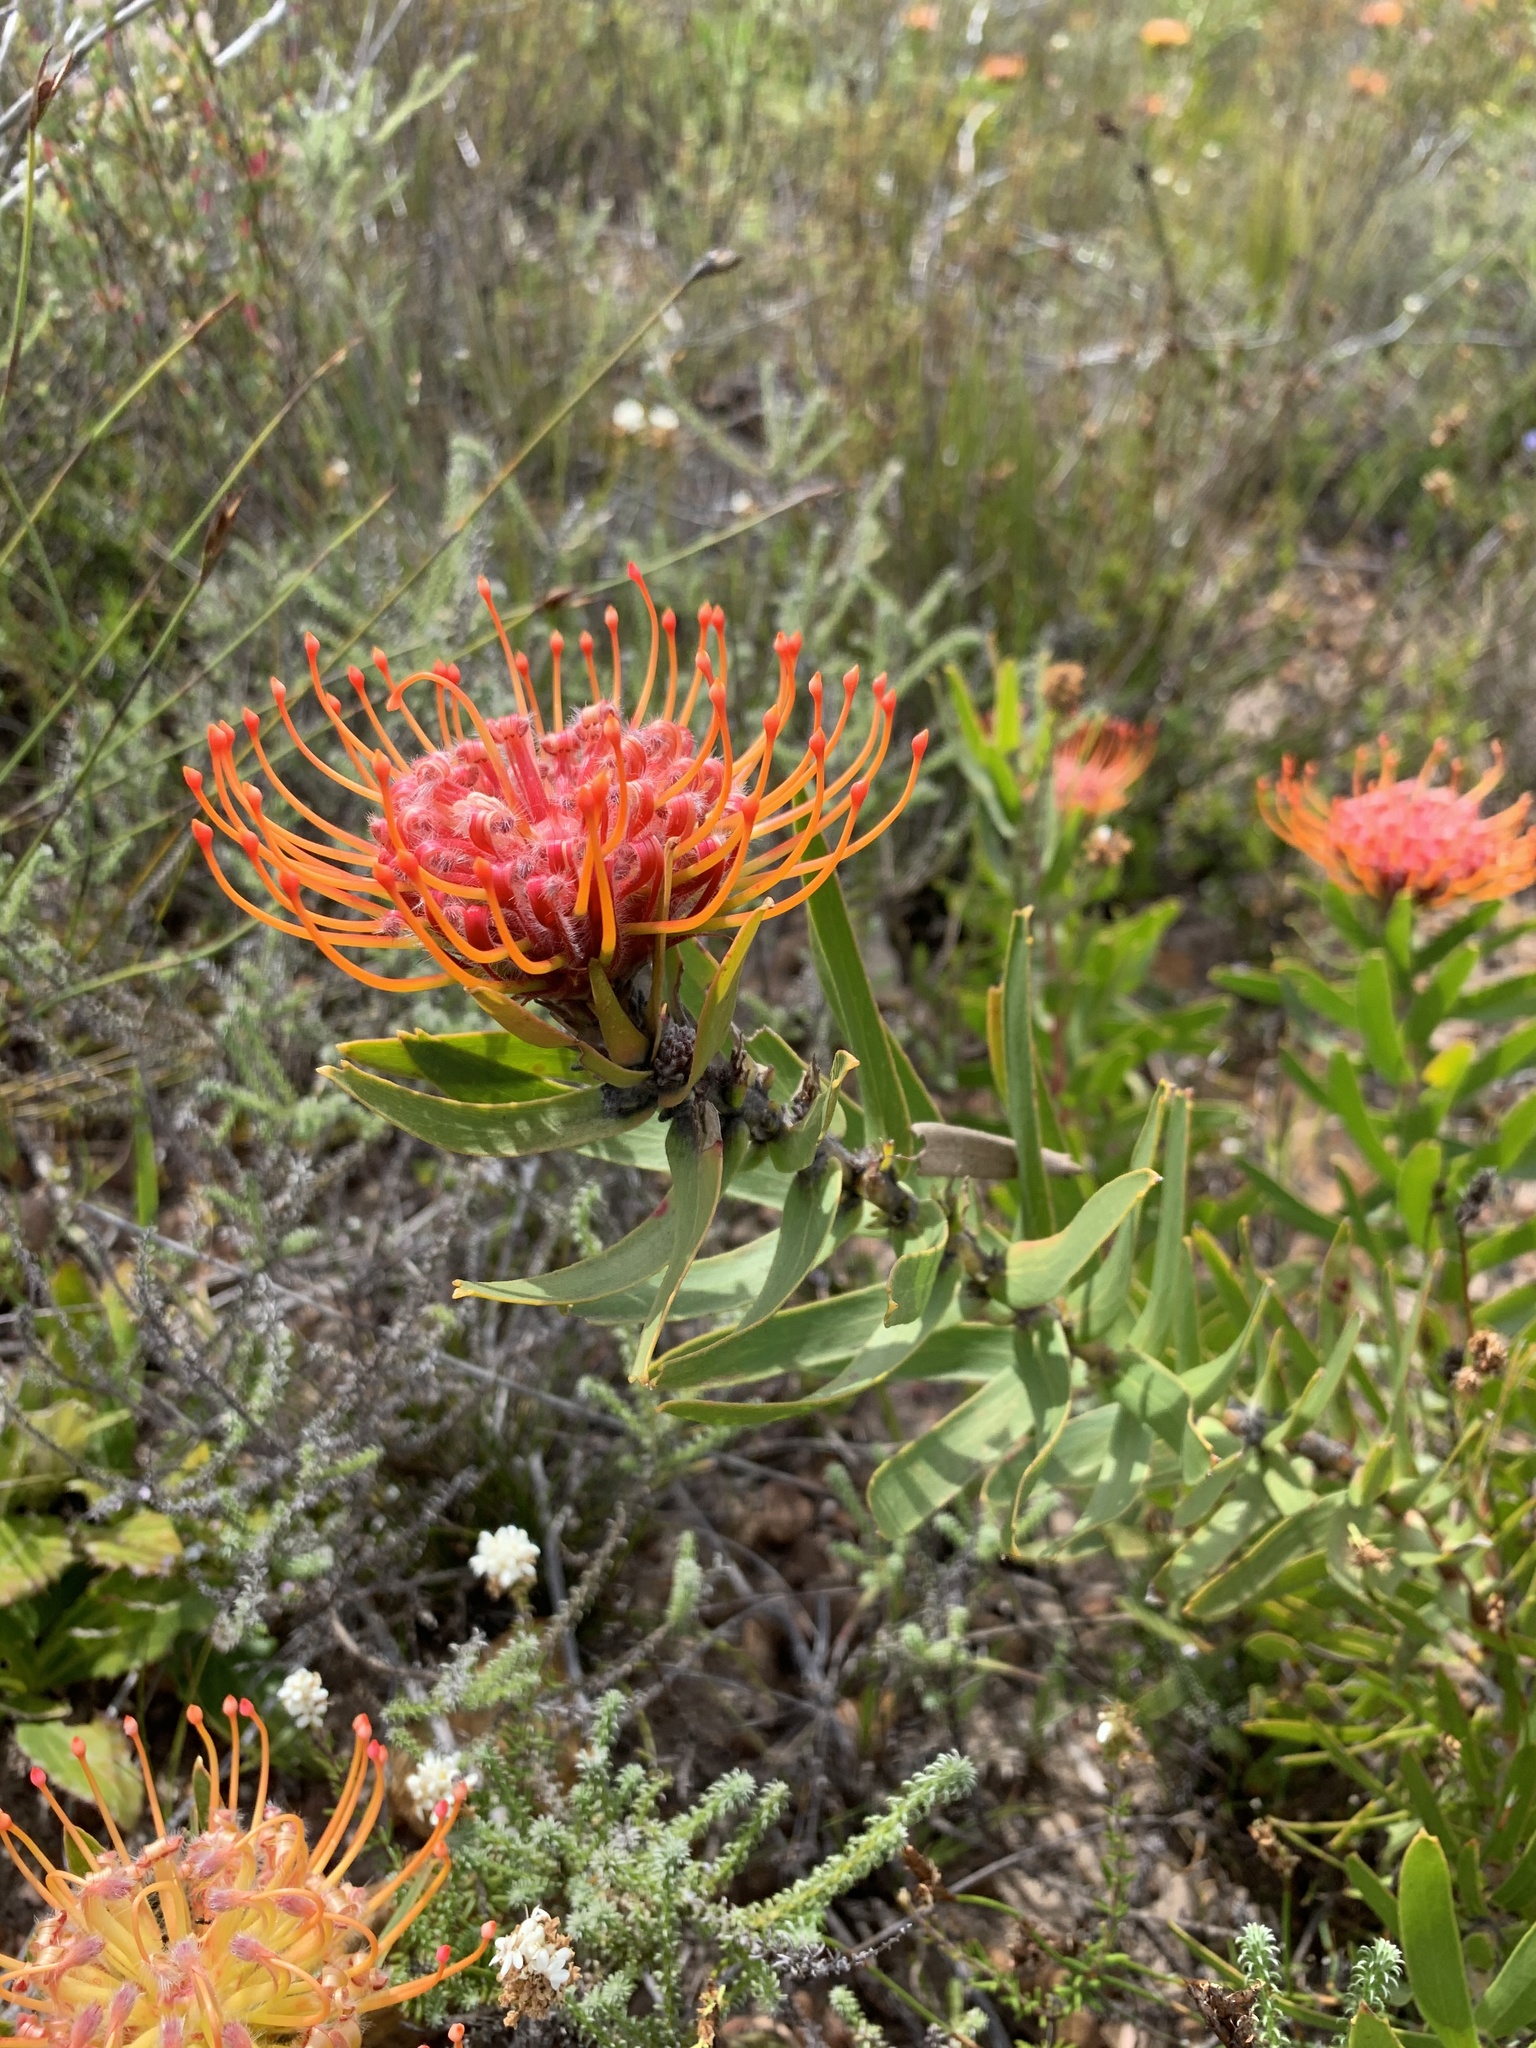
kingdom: Plantae
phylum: Tracheophyta
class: Magnoliopsida
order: Proteales
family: Proteaceae
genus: Leucospermum
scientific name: Leucospermum vestitum
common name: Silky-hair pincushion
